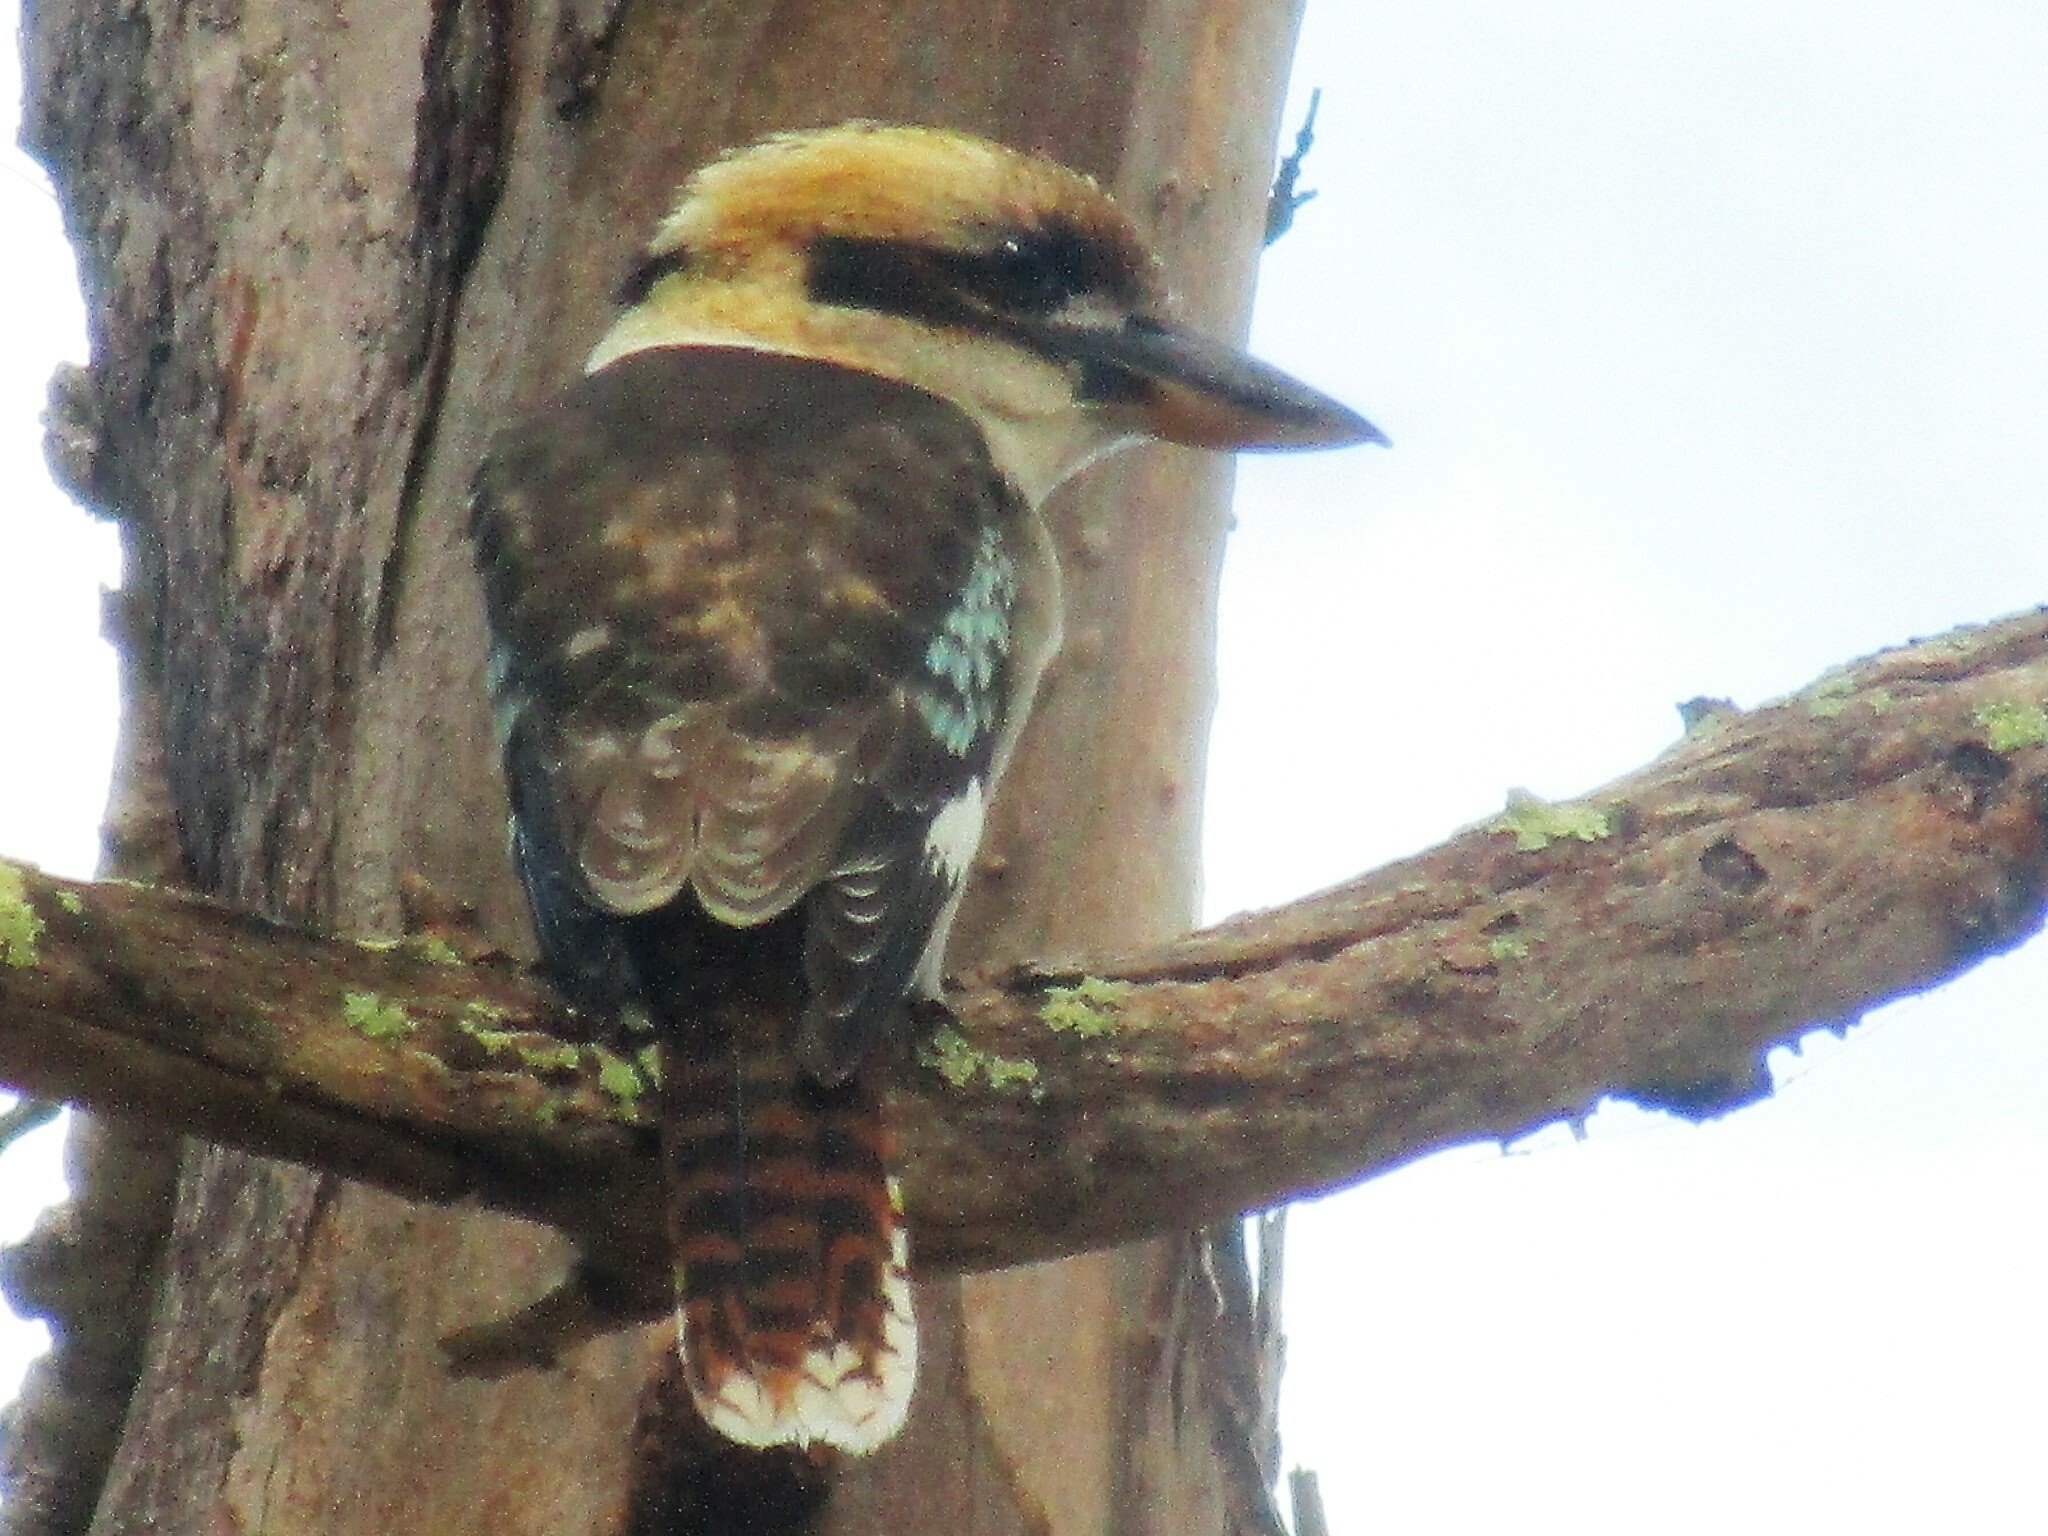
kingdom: Animalia
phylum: Chordata
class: Aves
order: Coraciiformes
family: Alcedinidae
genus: Dacelo
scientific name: Dacelo novaeguineae
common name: Laughing kookaburra
